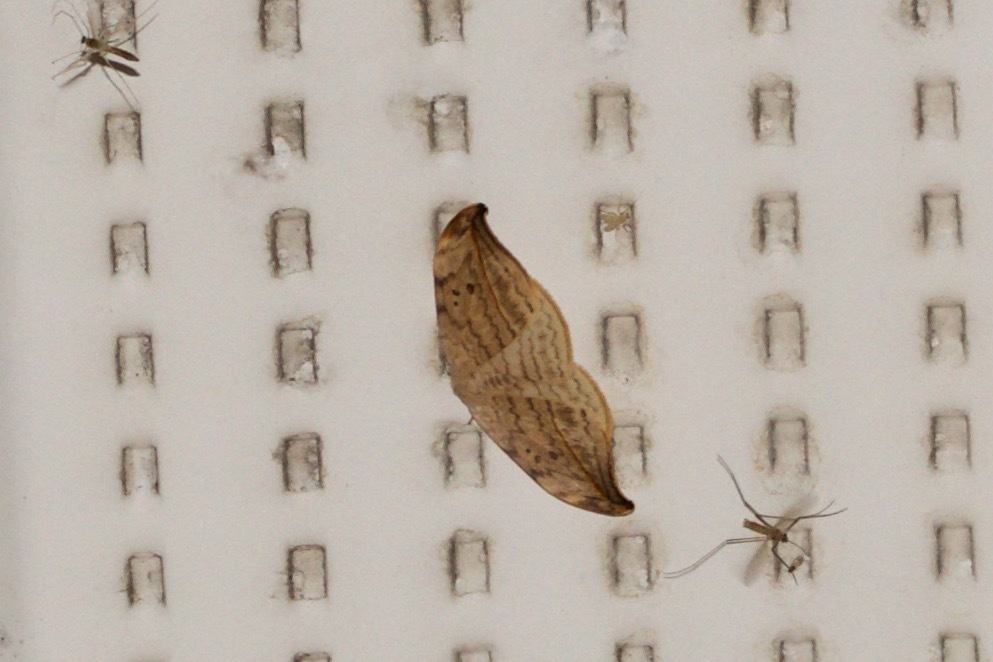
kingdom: Animalia
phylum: Arthropoda
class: Insecta
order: Lepidoptera
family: Drepanidae
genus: Drepana
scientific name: Drepana arcuata
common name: Arched hooktip moth
